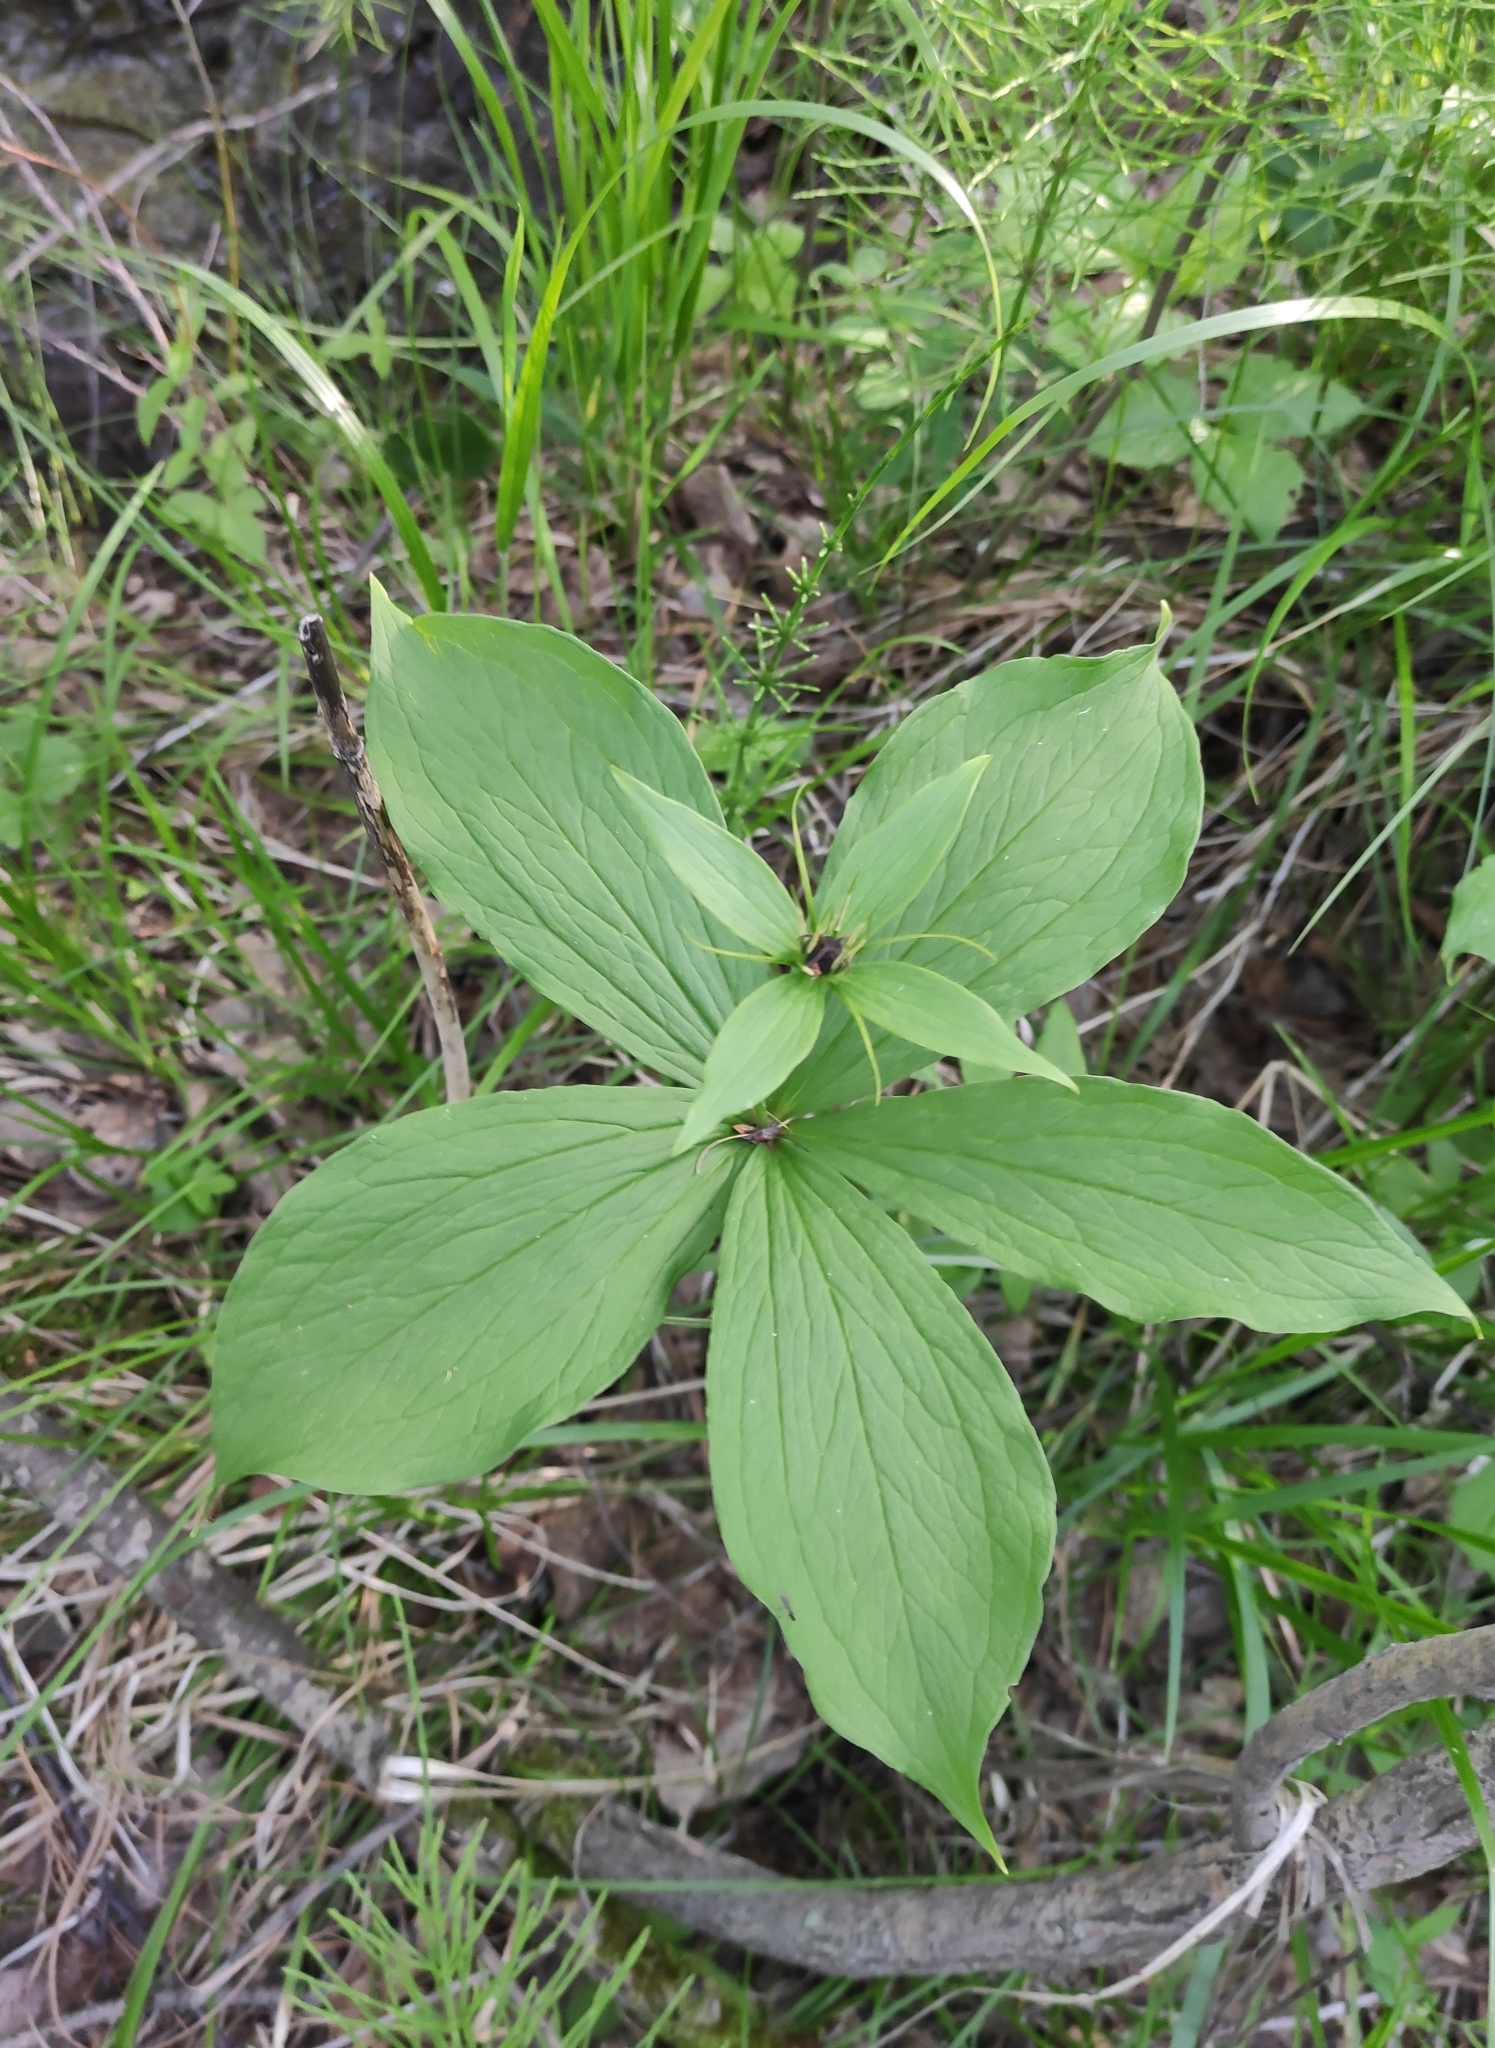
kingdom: Plantae
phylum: Tracheophyta
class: Liliopsida
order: Liliales
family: Melanthiaceae
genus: Paris
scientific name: Paris verticillata
